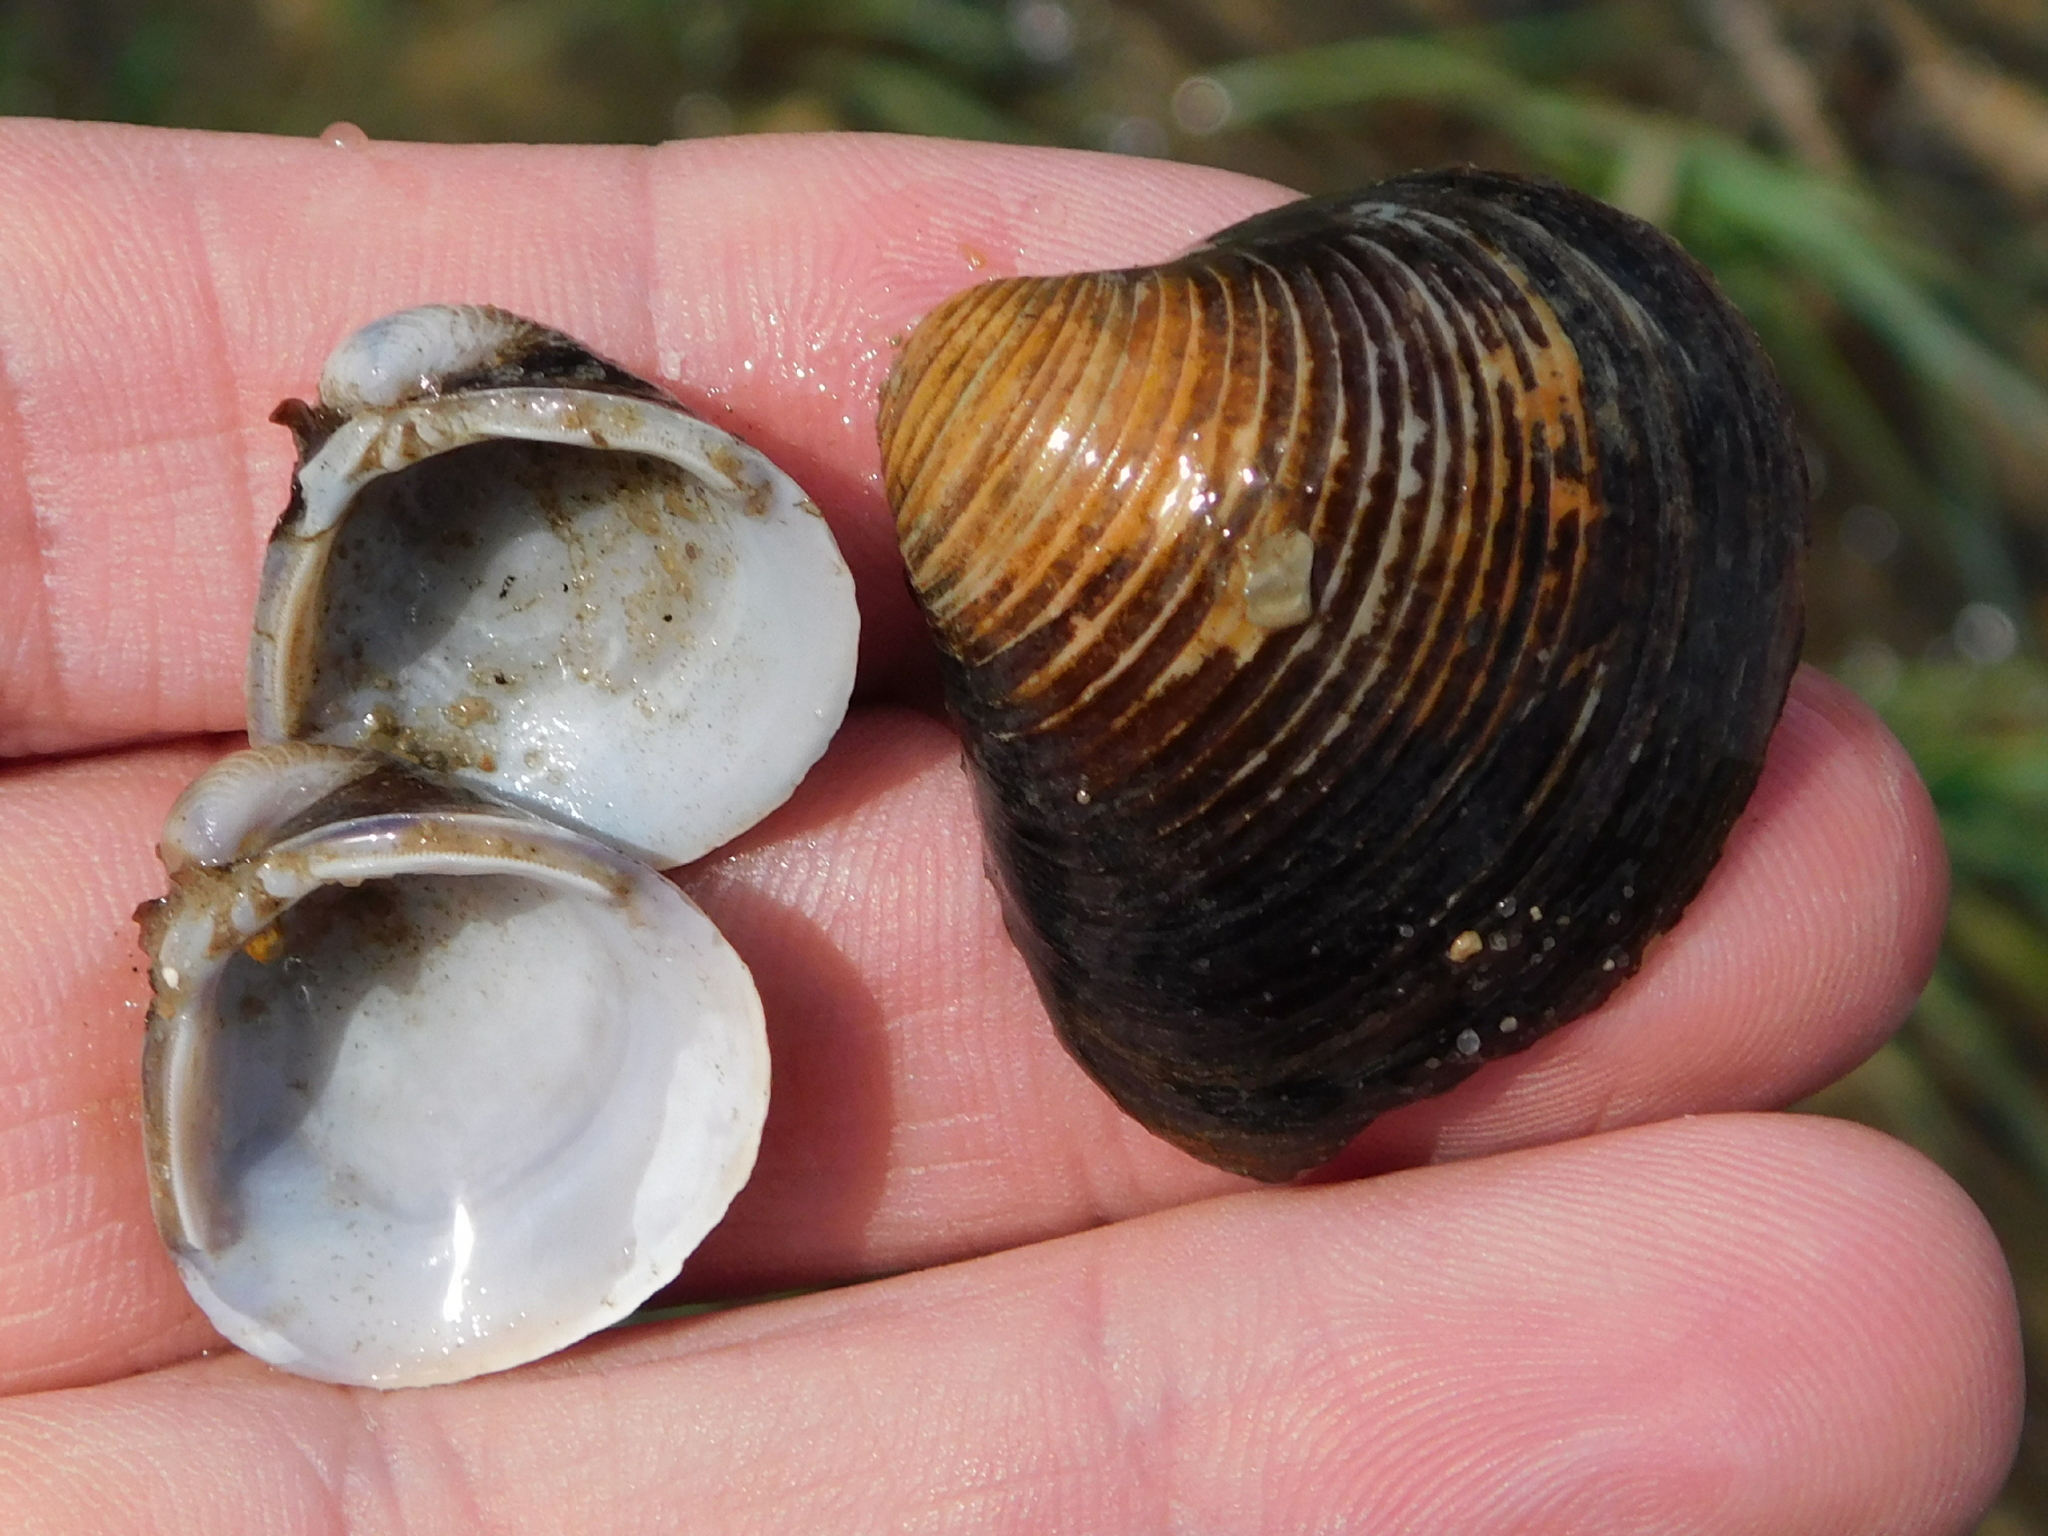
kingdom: Animalia
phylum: Mollusca
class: Bivalvia
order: Venerida
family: Cyrenidae
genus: Corbicula
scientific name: Corbicula fluminea
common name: Asian clam
